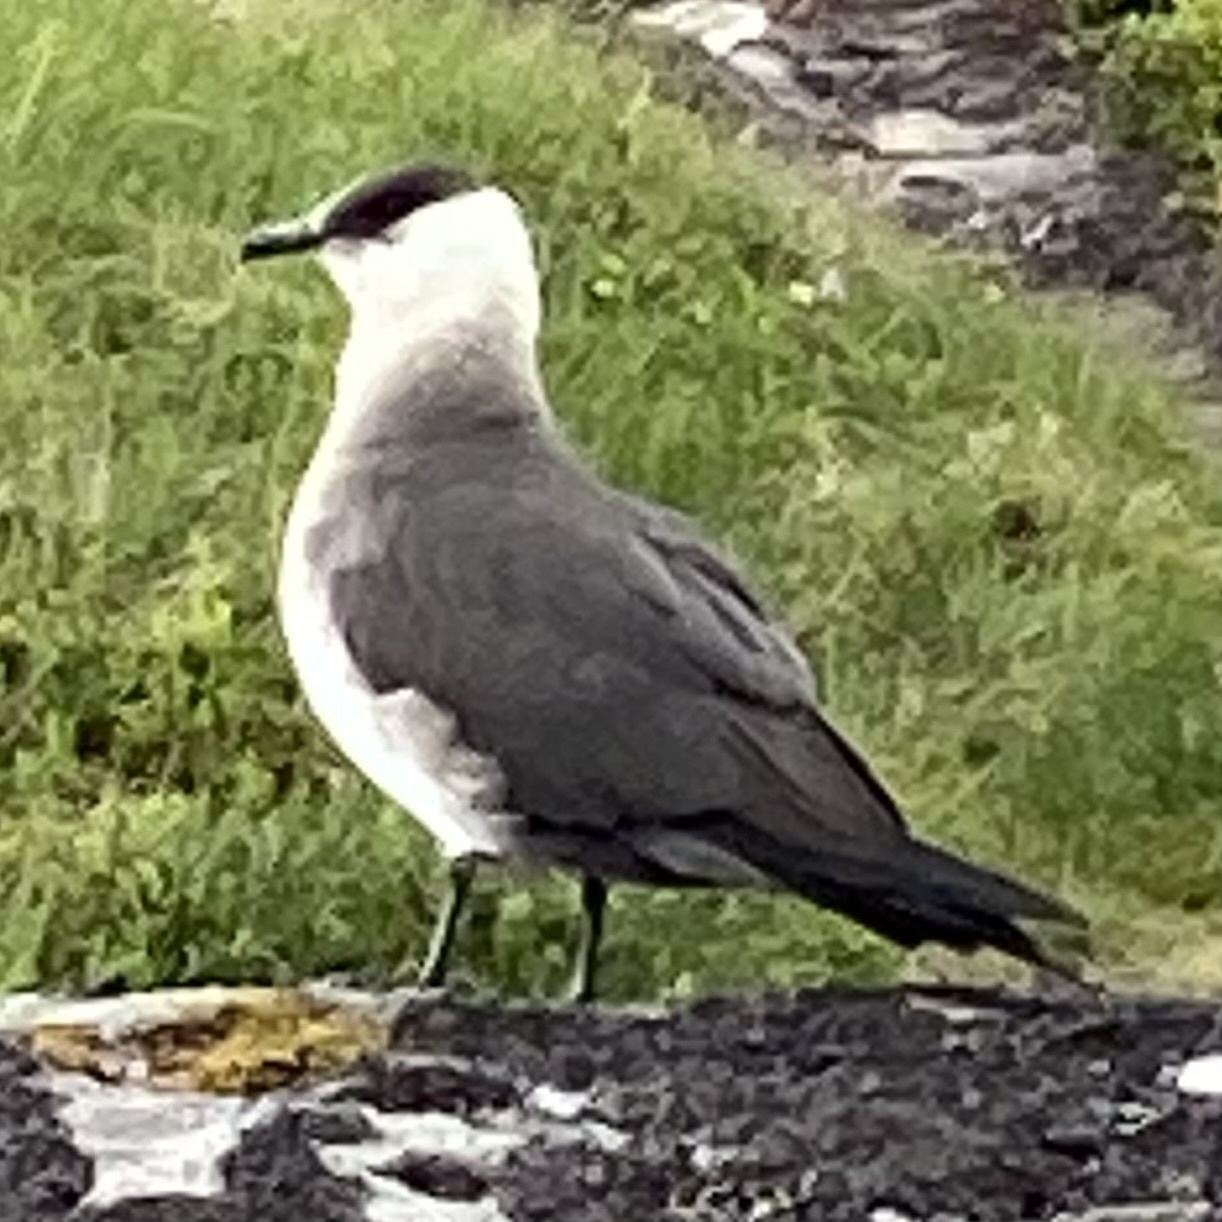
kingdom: Animalia
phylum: Chordata
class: Aves
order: Charadriiformes
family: Stercorariidae
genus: Stercorarius
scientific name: Stercorarius parasiticus
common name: Parasitic jaeger
